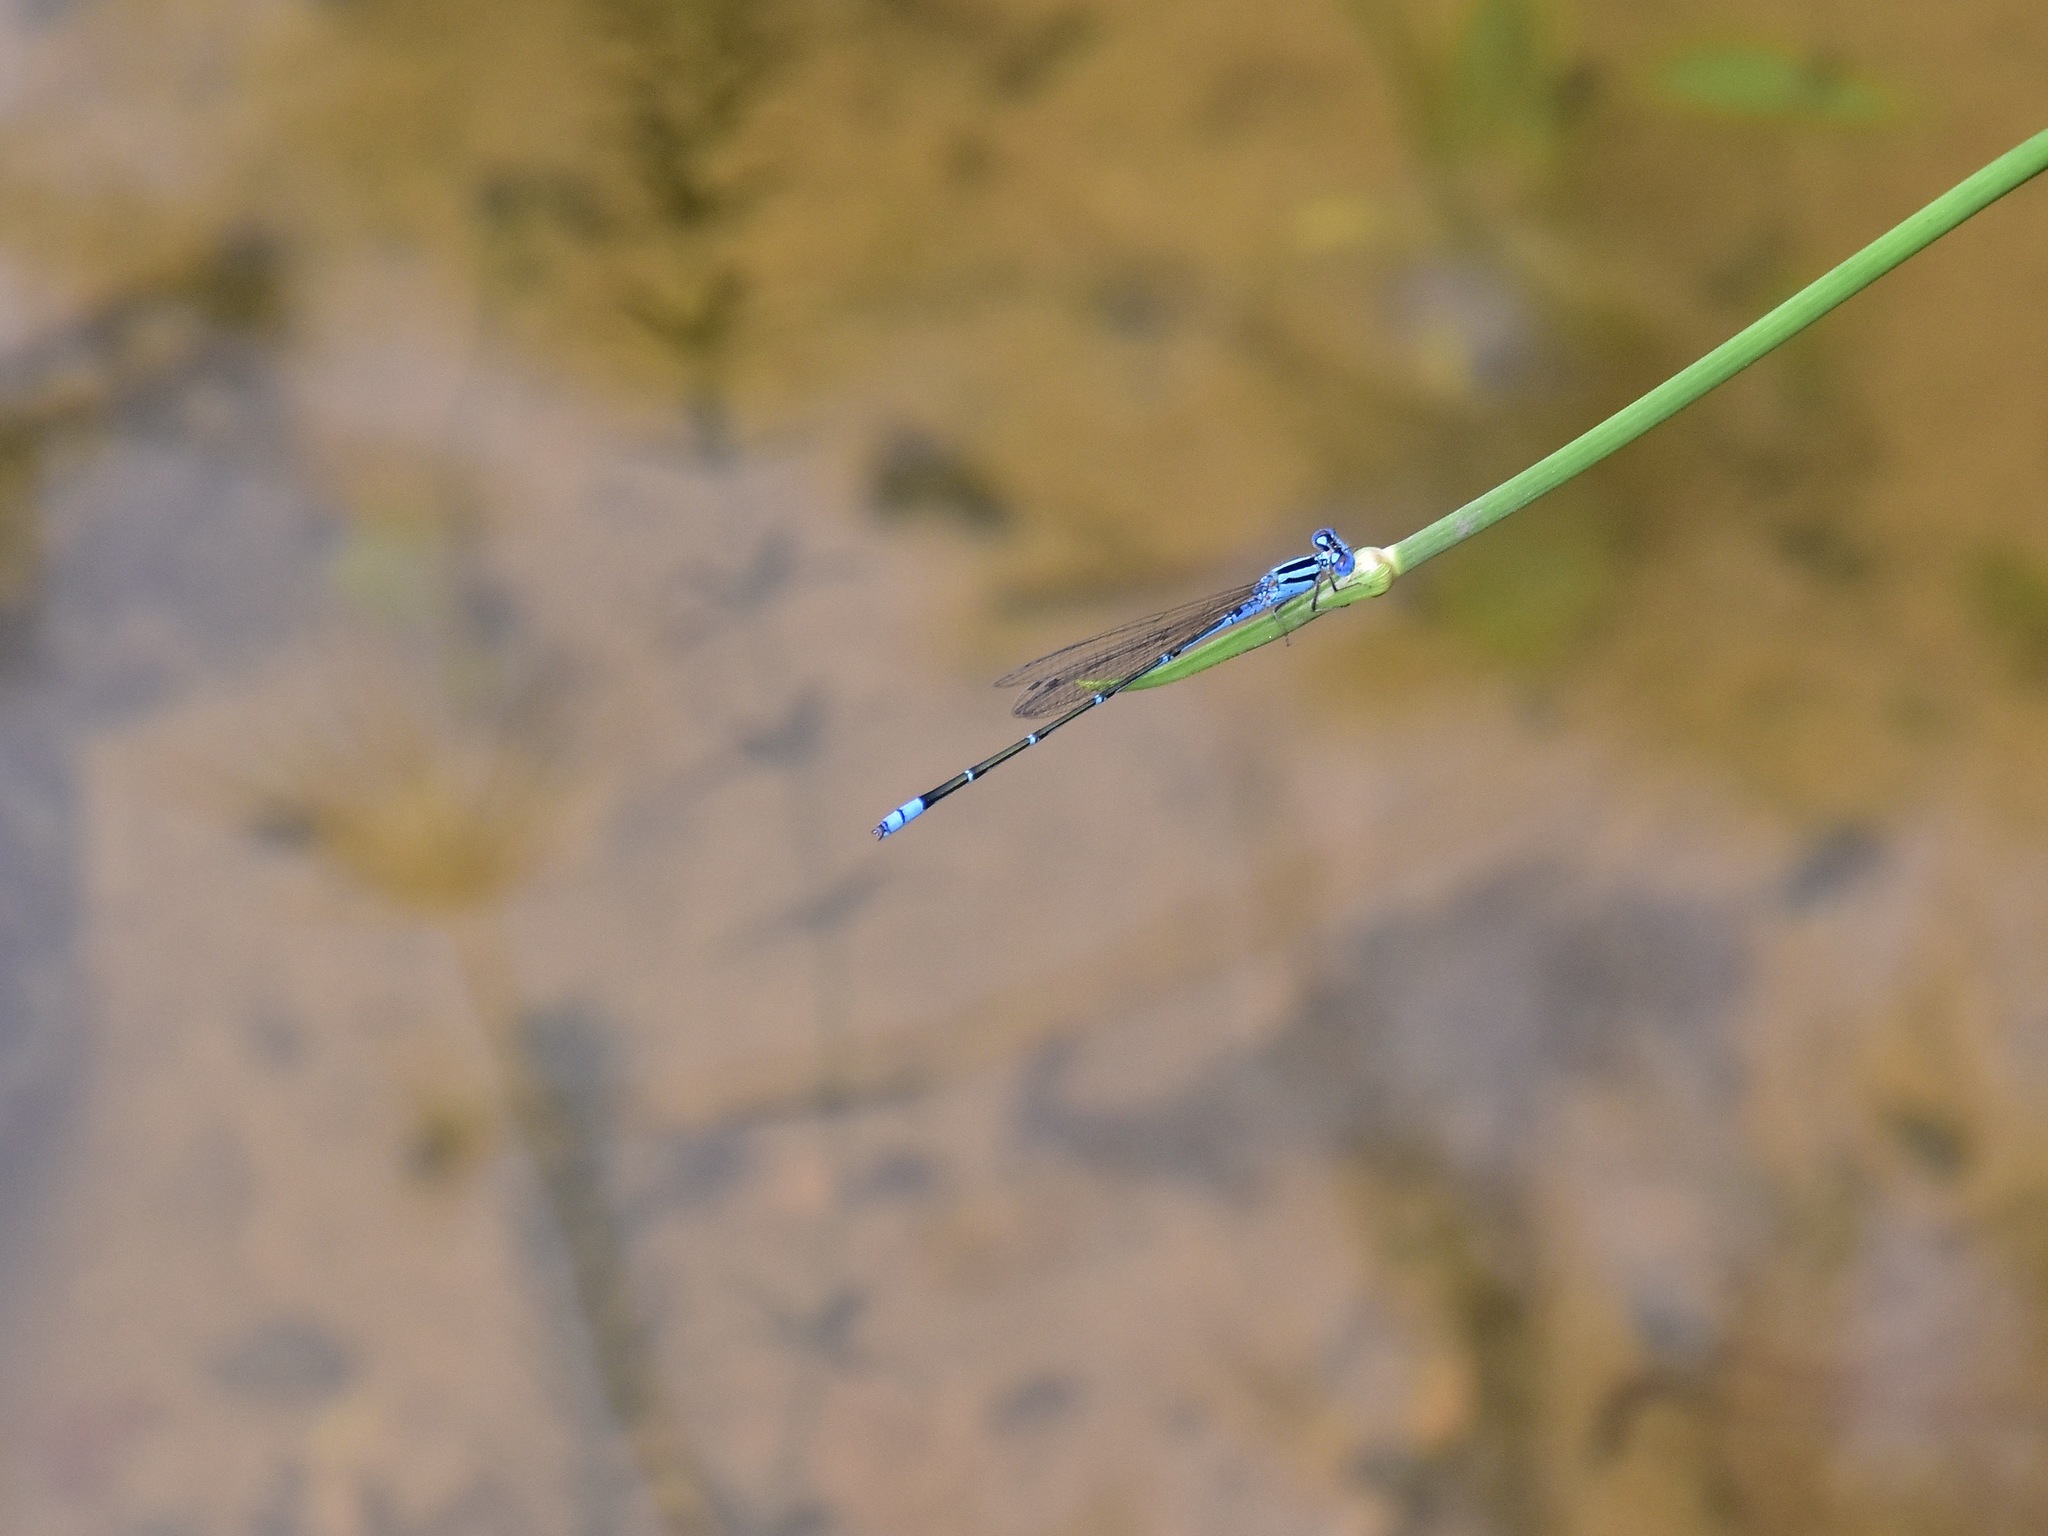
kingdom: Animalia
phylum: Arthropoda
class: Insecta
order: Odonata
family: Coenagrionidae
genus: Pseudagrion
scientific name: Pseudagrion microcephalum
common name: Blue riverdamsel
